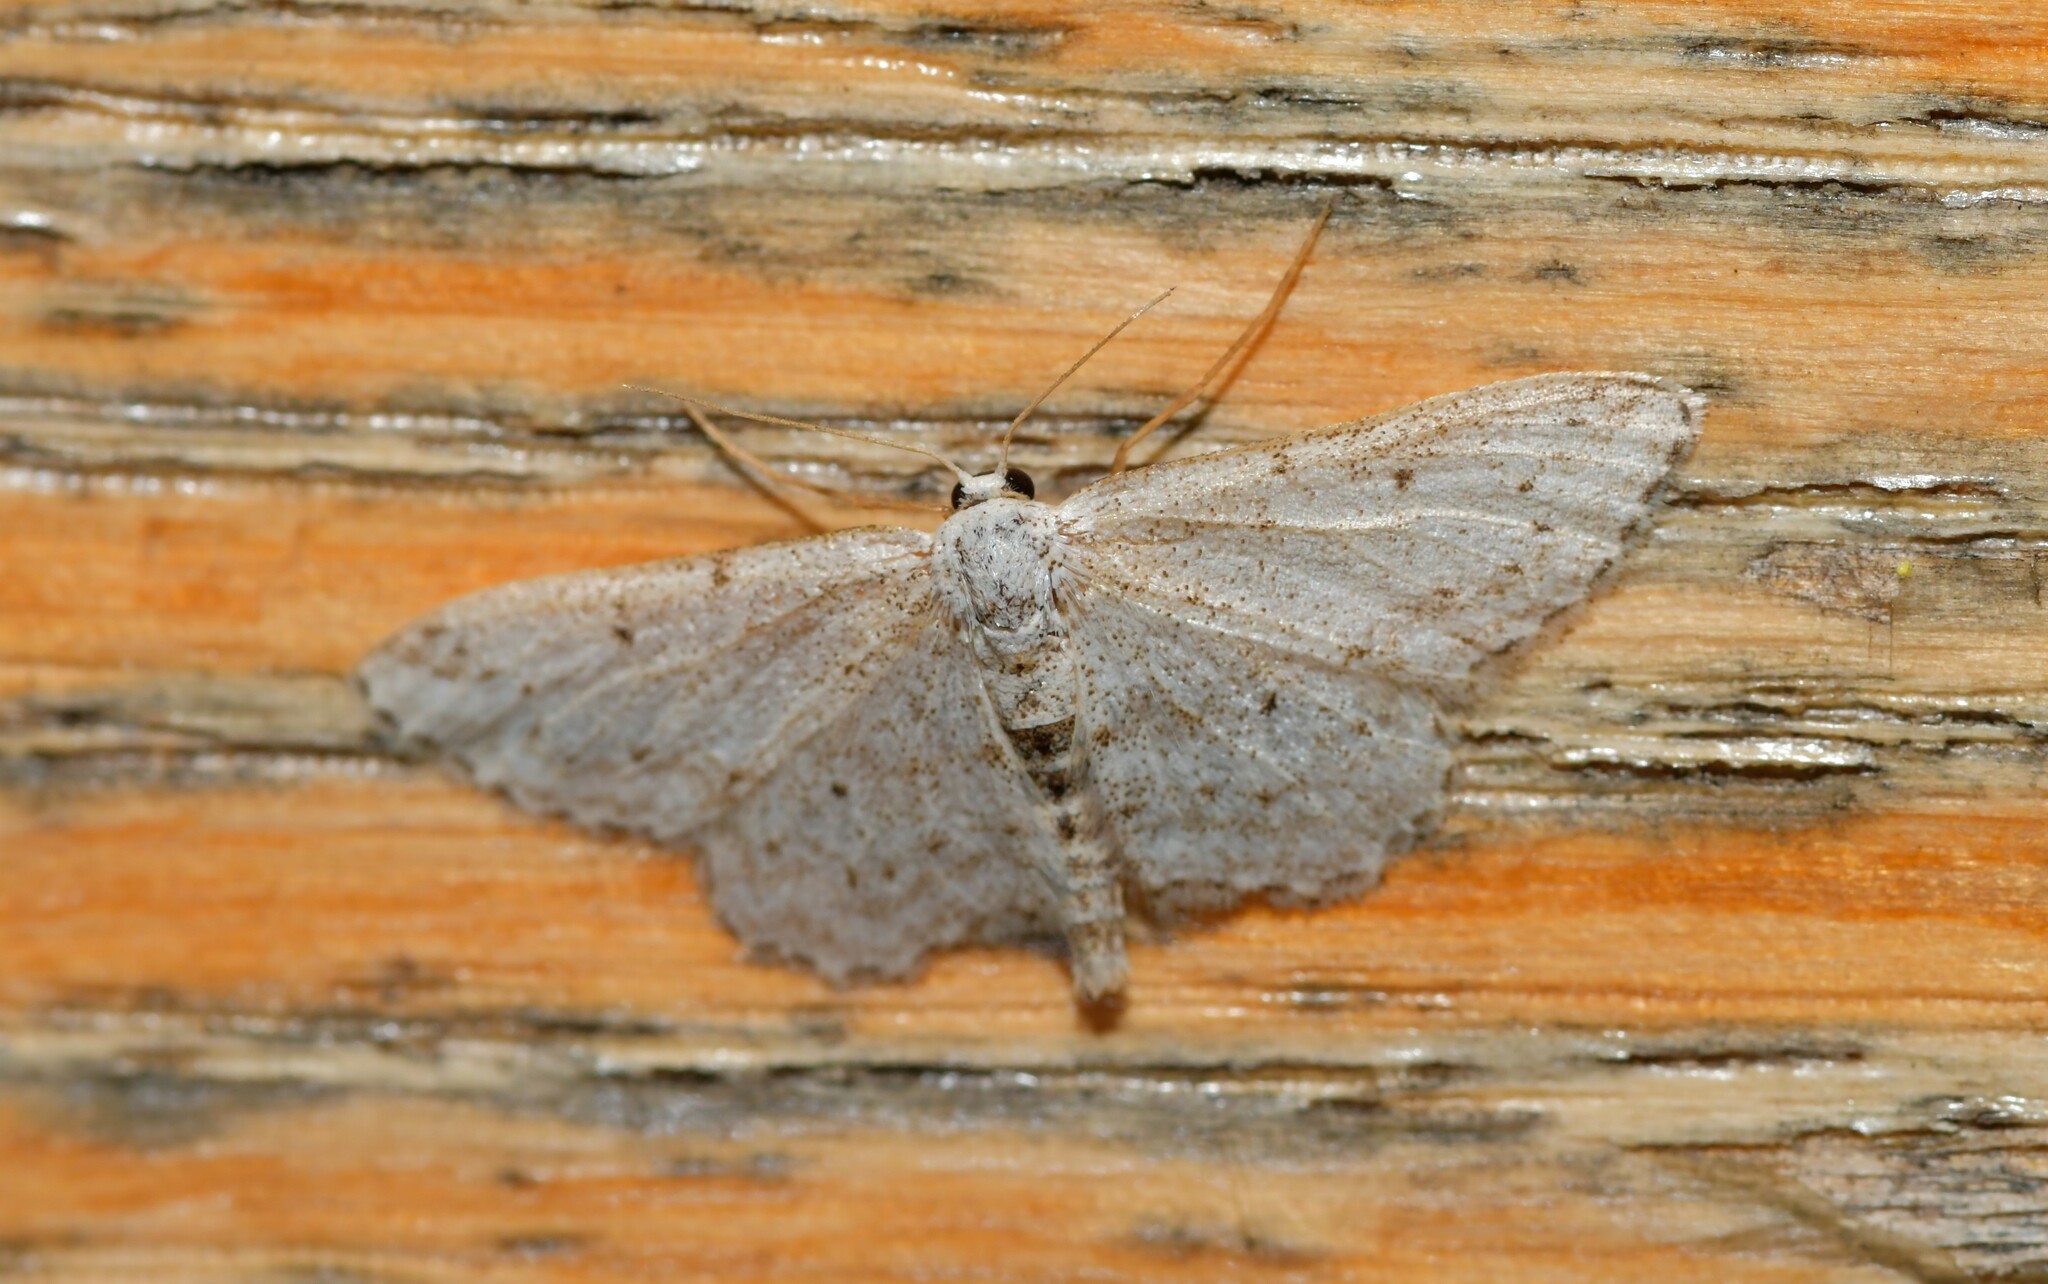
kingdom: Animalia
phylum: Arthropoda
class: Insecta
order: Lepidoptera
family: Geometridae
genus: Idaea
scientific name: Idaea incisaria
